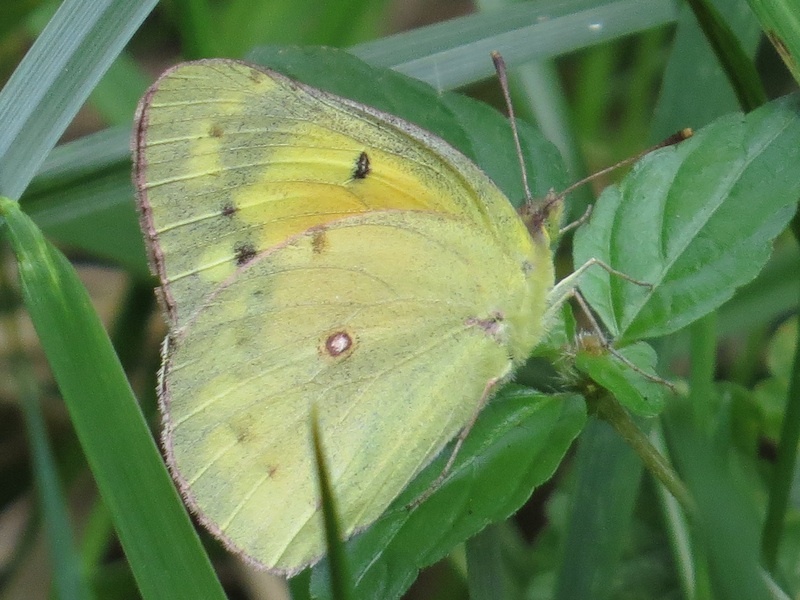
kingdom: Animalia
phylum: Arthropoda
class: Insecta
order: Lepidoptera
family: Pieridae
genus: Colias
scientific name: Colias eurytheme
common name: Alfalfa butterfly
